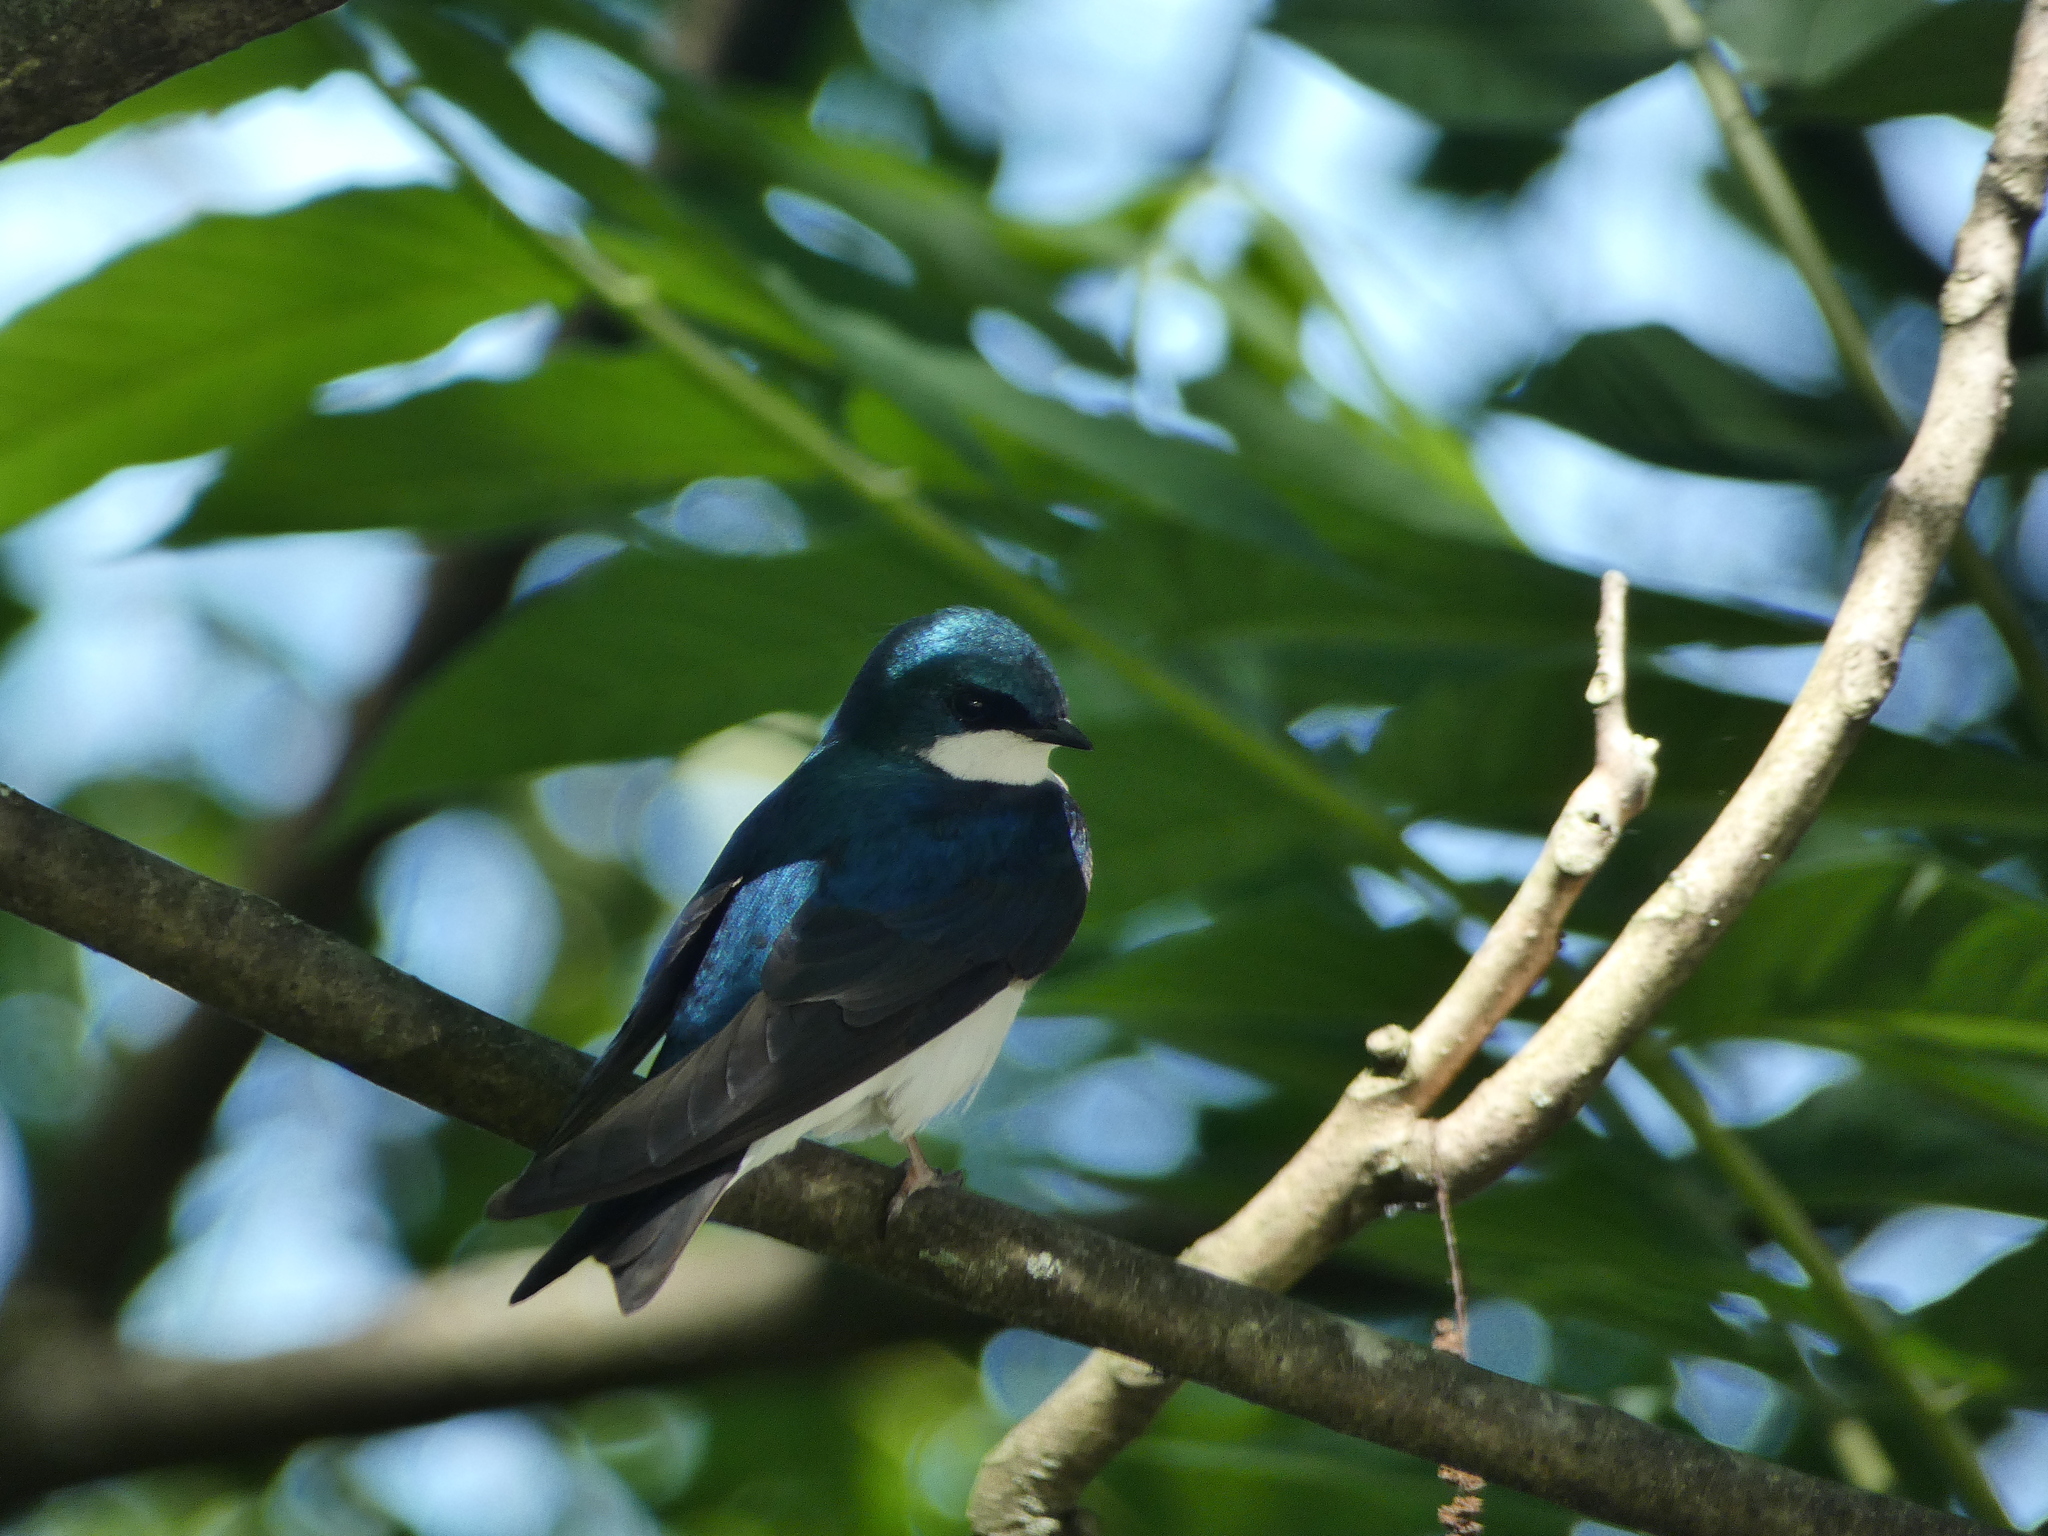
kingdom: Animalia
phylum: Chordata
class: Aves
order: Passeriformes
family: Hirundinidae
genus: Tachycineta
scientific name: Tachycineta bicolor
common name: Tree swallow
